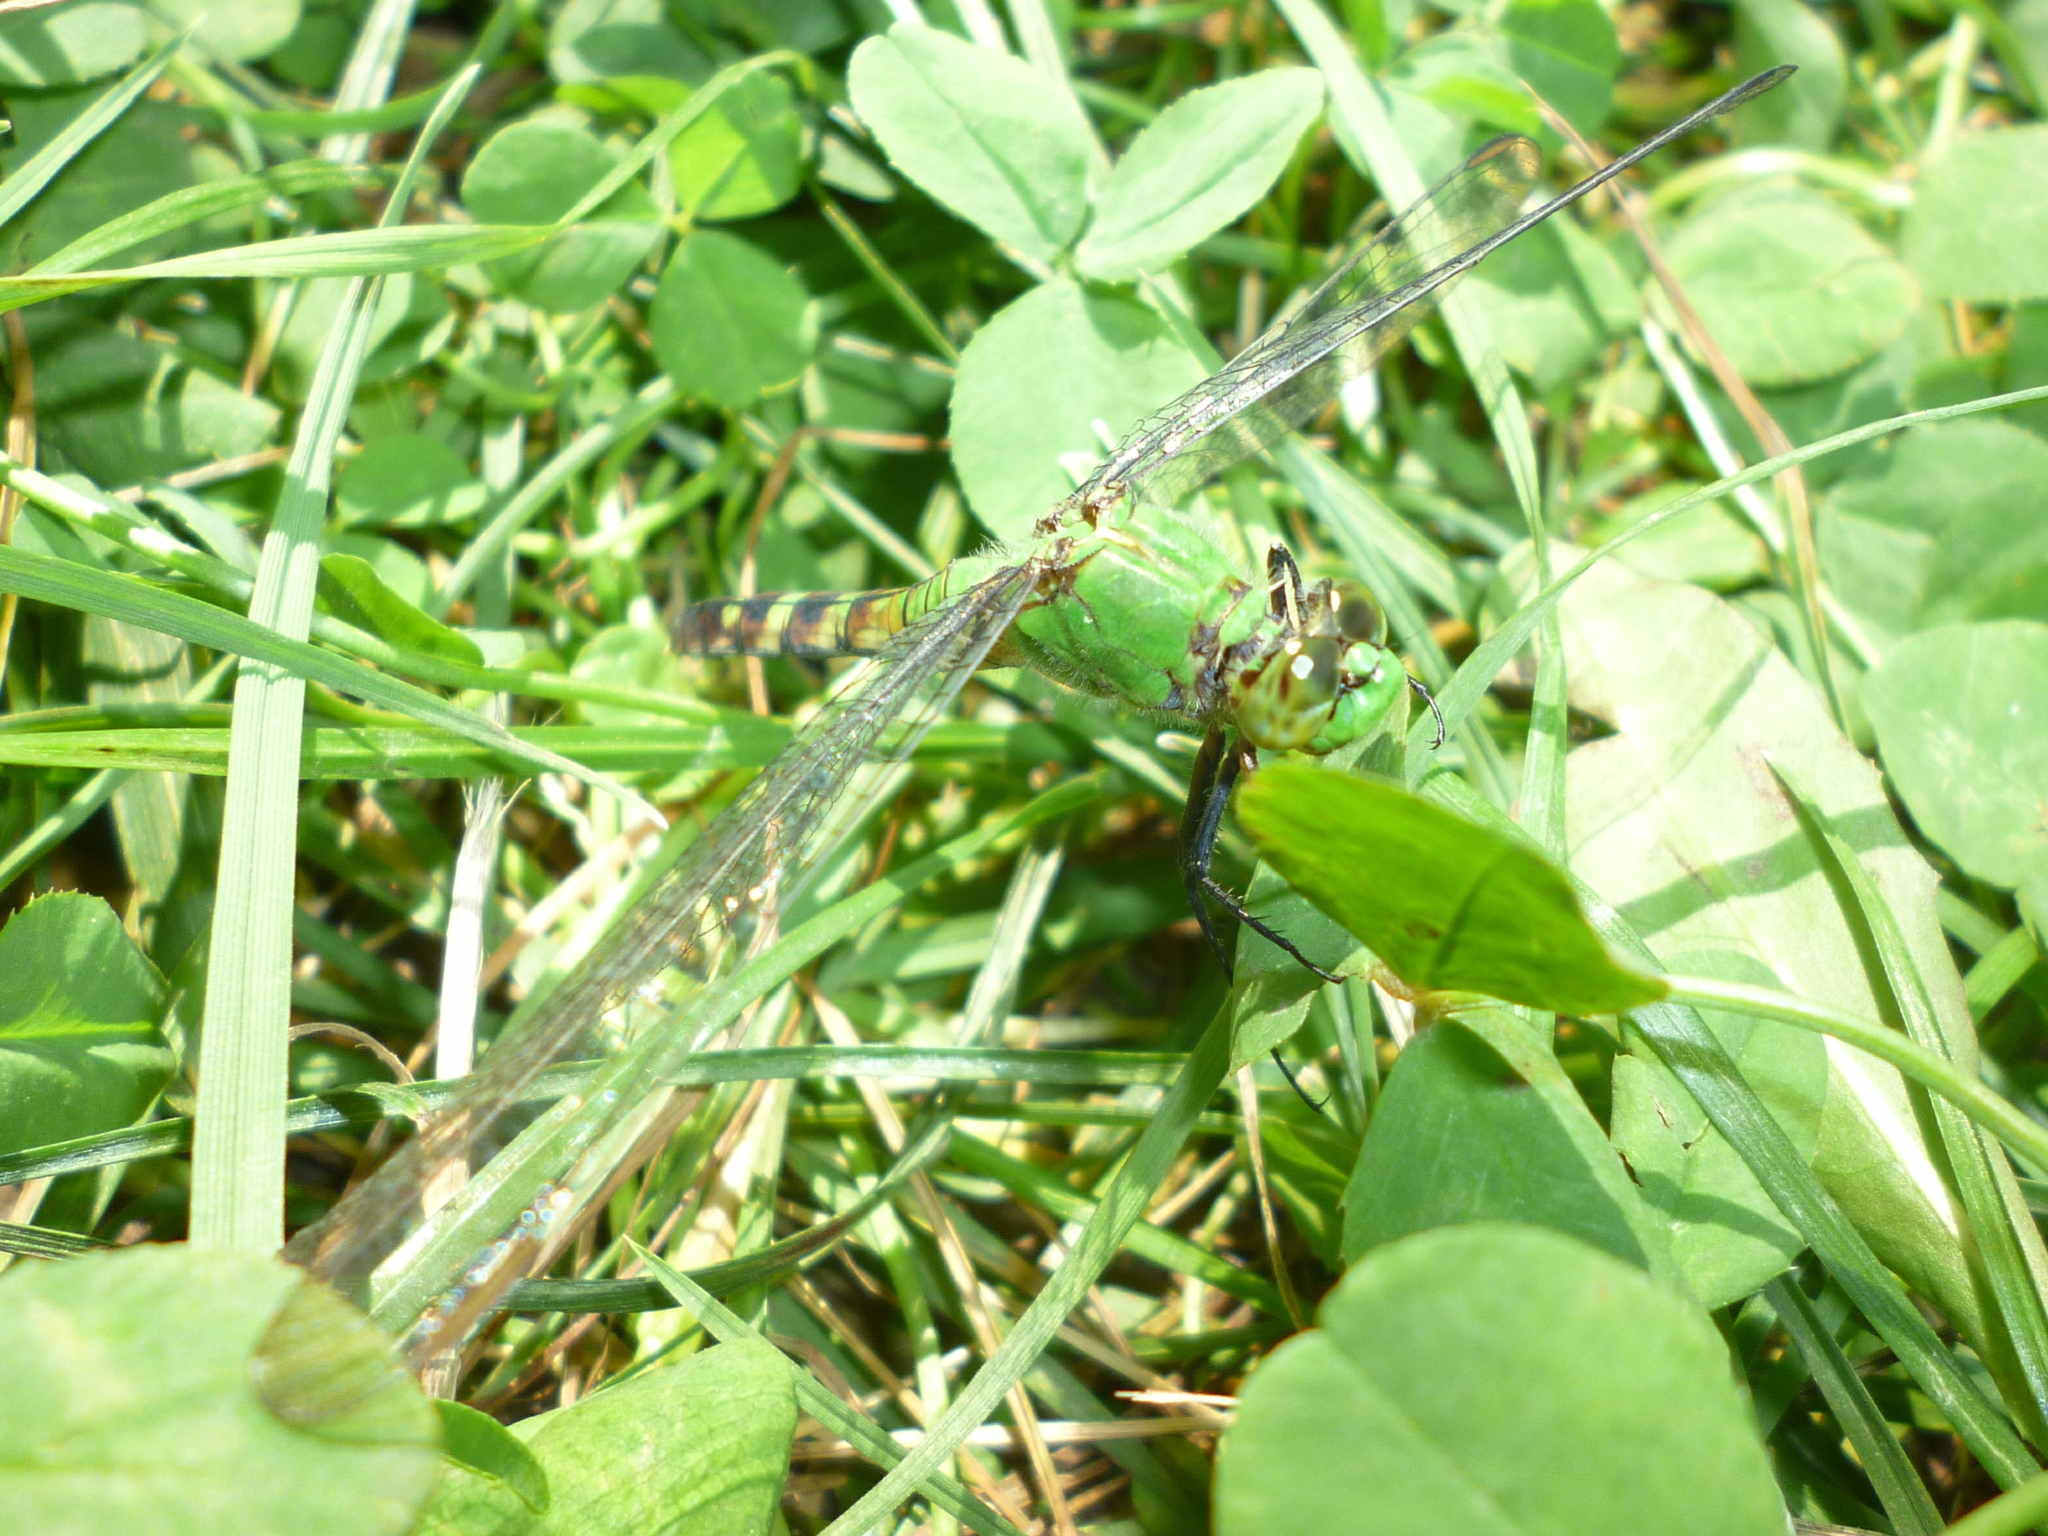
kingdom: Animalia
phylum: Arthropoda
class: Insecta
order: Odonata
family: Libellulidae
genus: Erythemis
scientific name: Erythemis simplicicollis
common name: Eastern pondhawk
